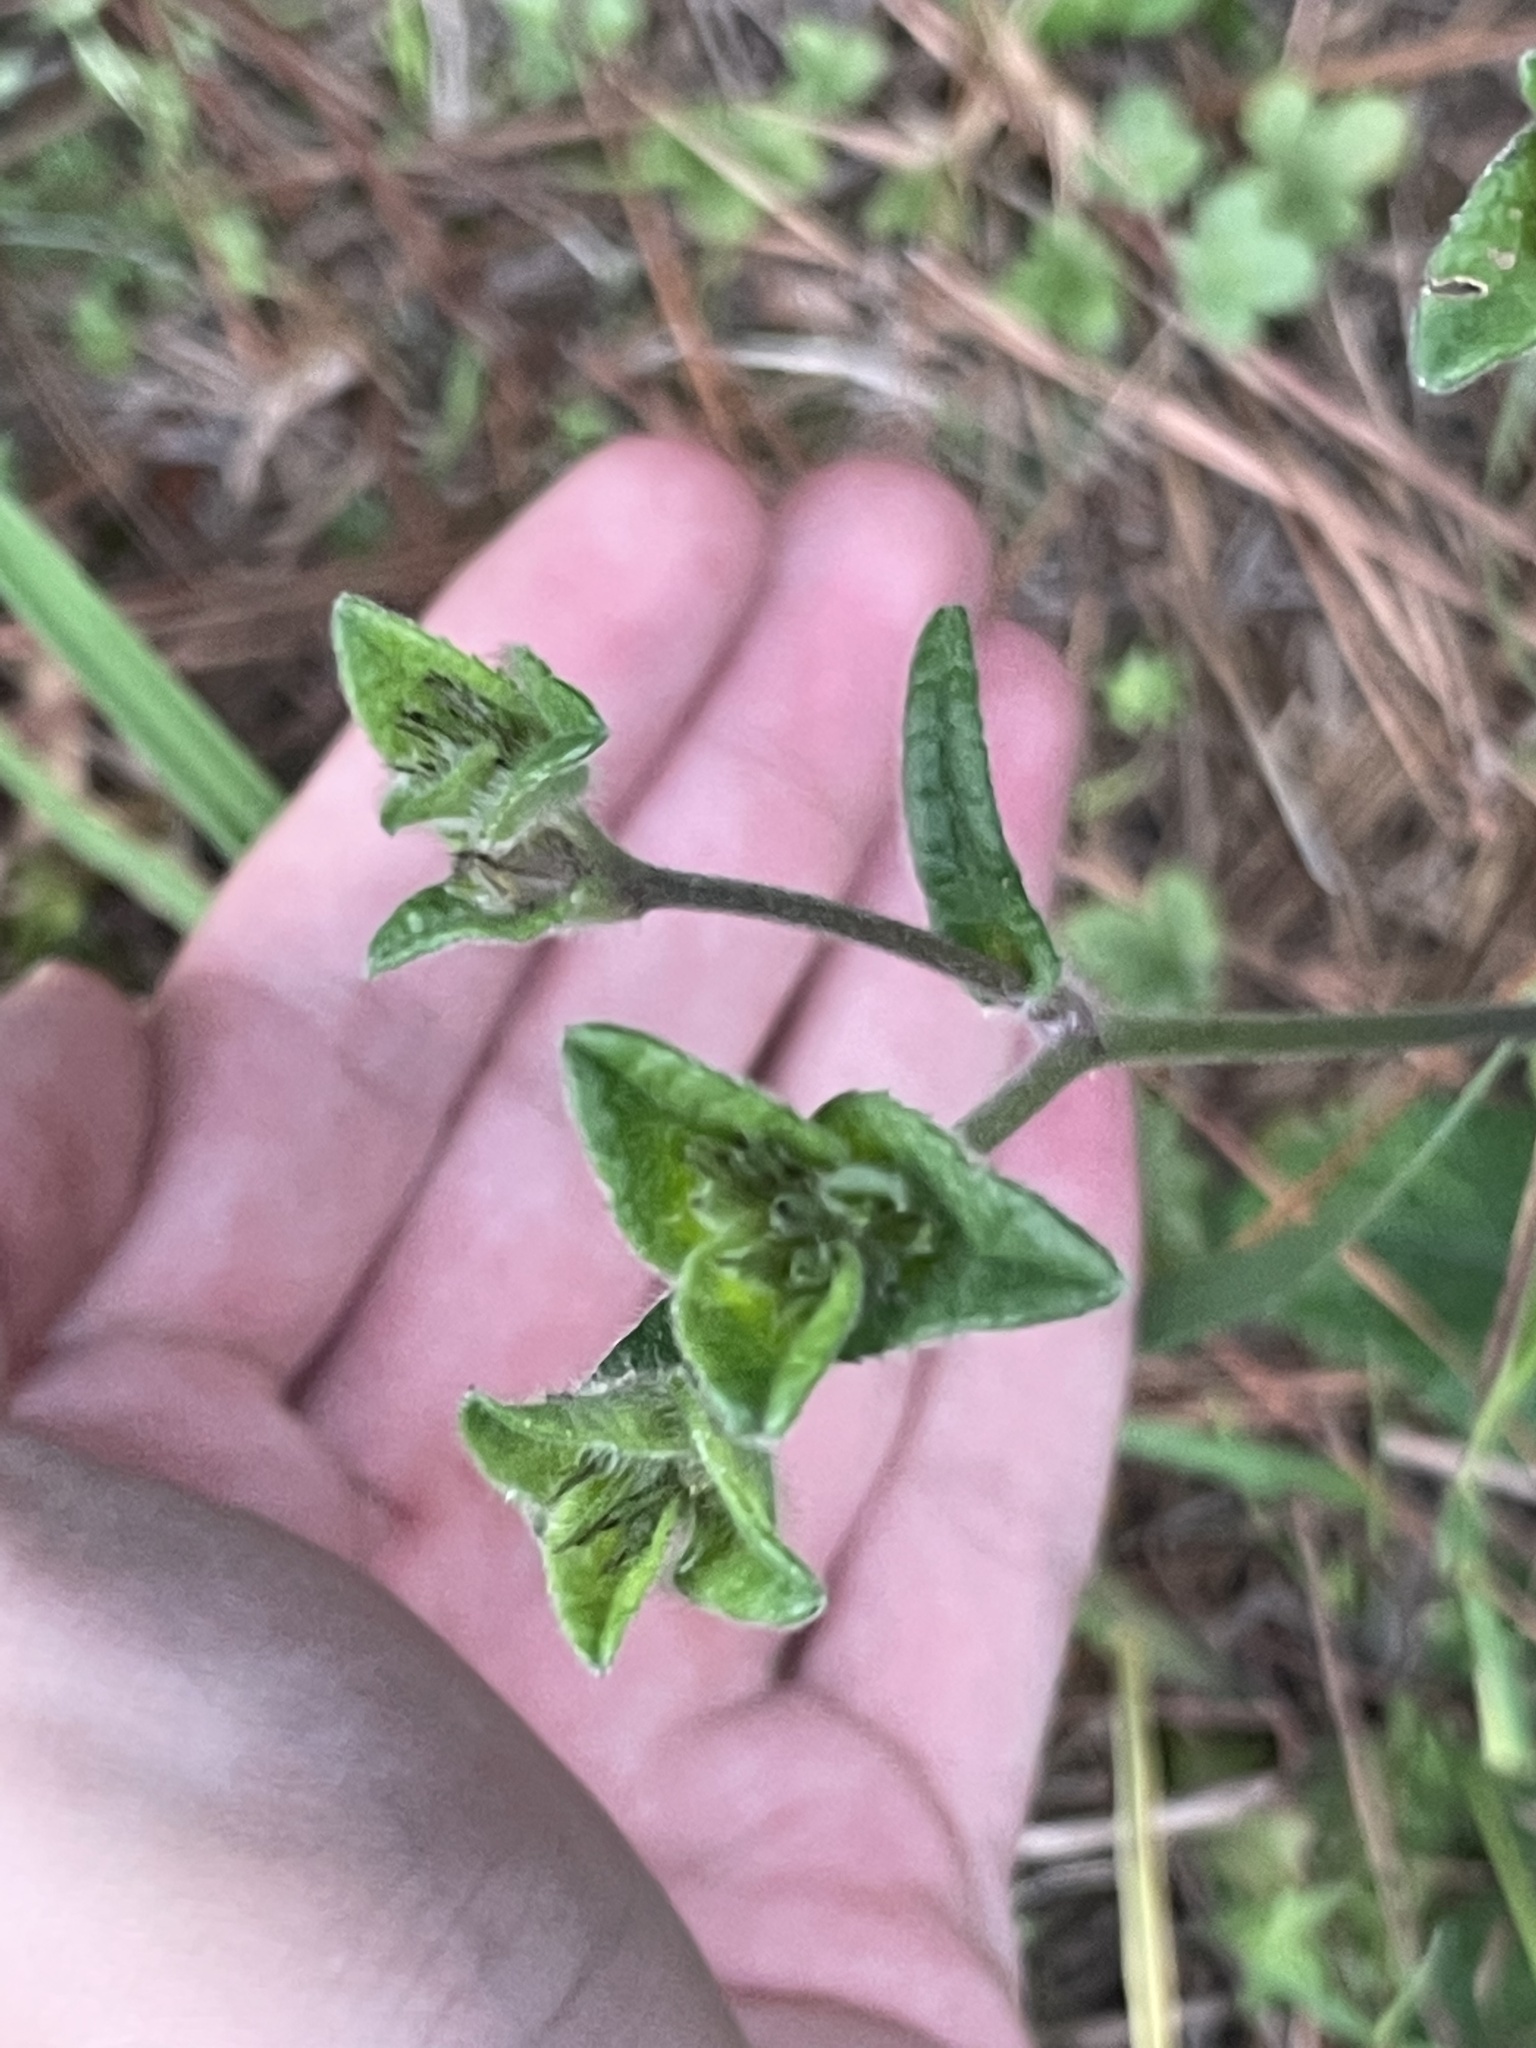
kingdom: Plantae
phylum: Tracheophyta
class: Magnoliopsida
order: Asterales
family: Asteraceae
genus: Elephantopus
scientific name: Elephantopus tomentosus
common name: Tobacco-weed
